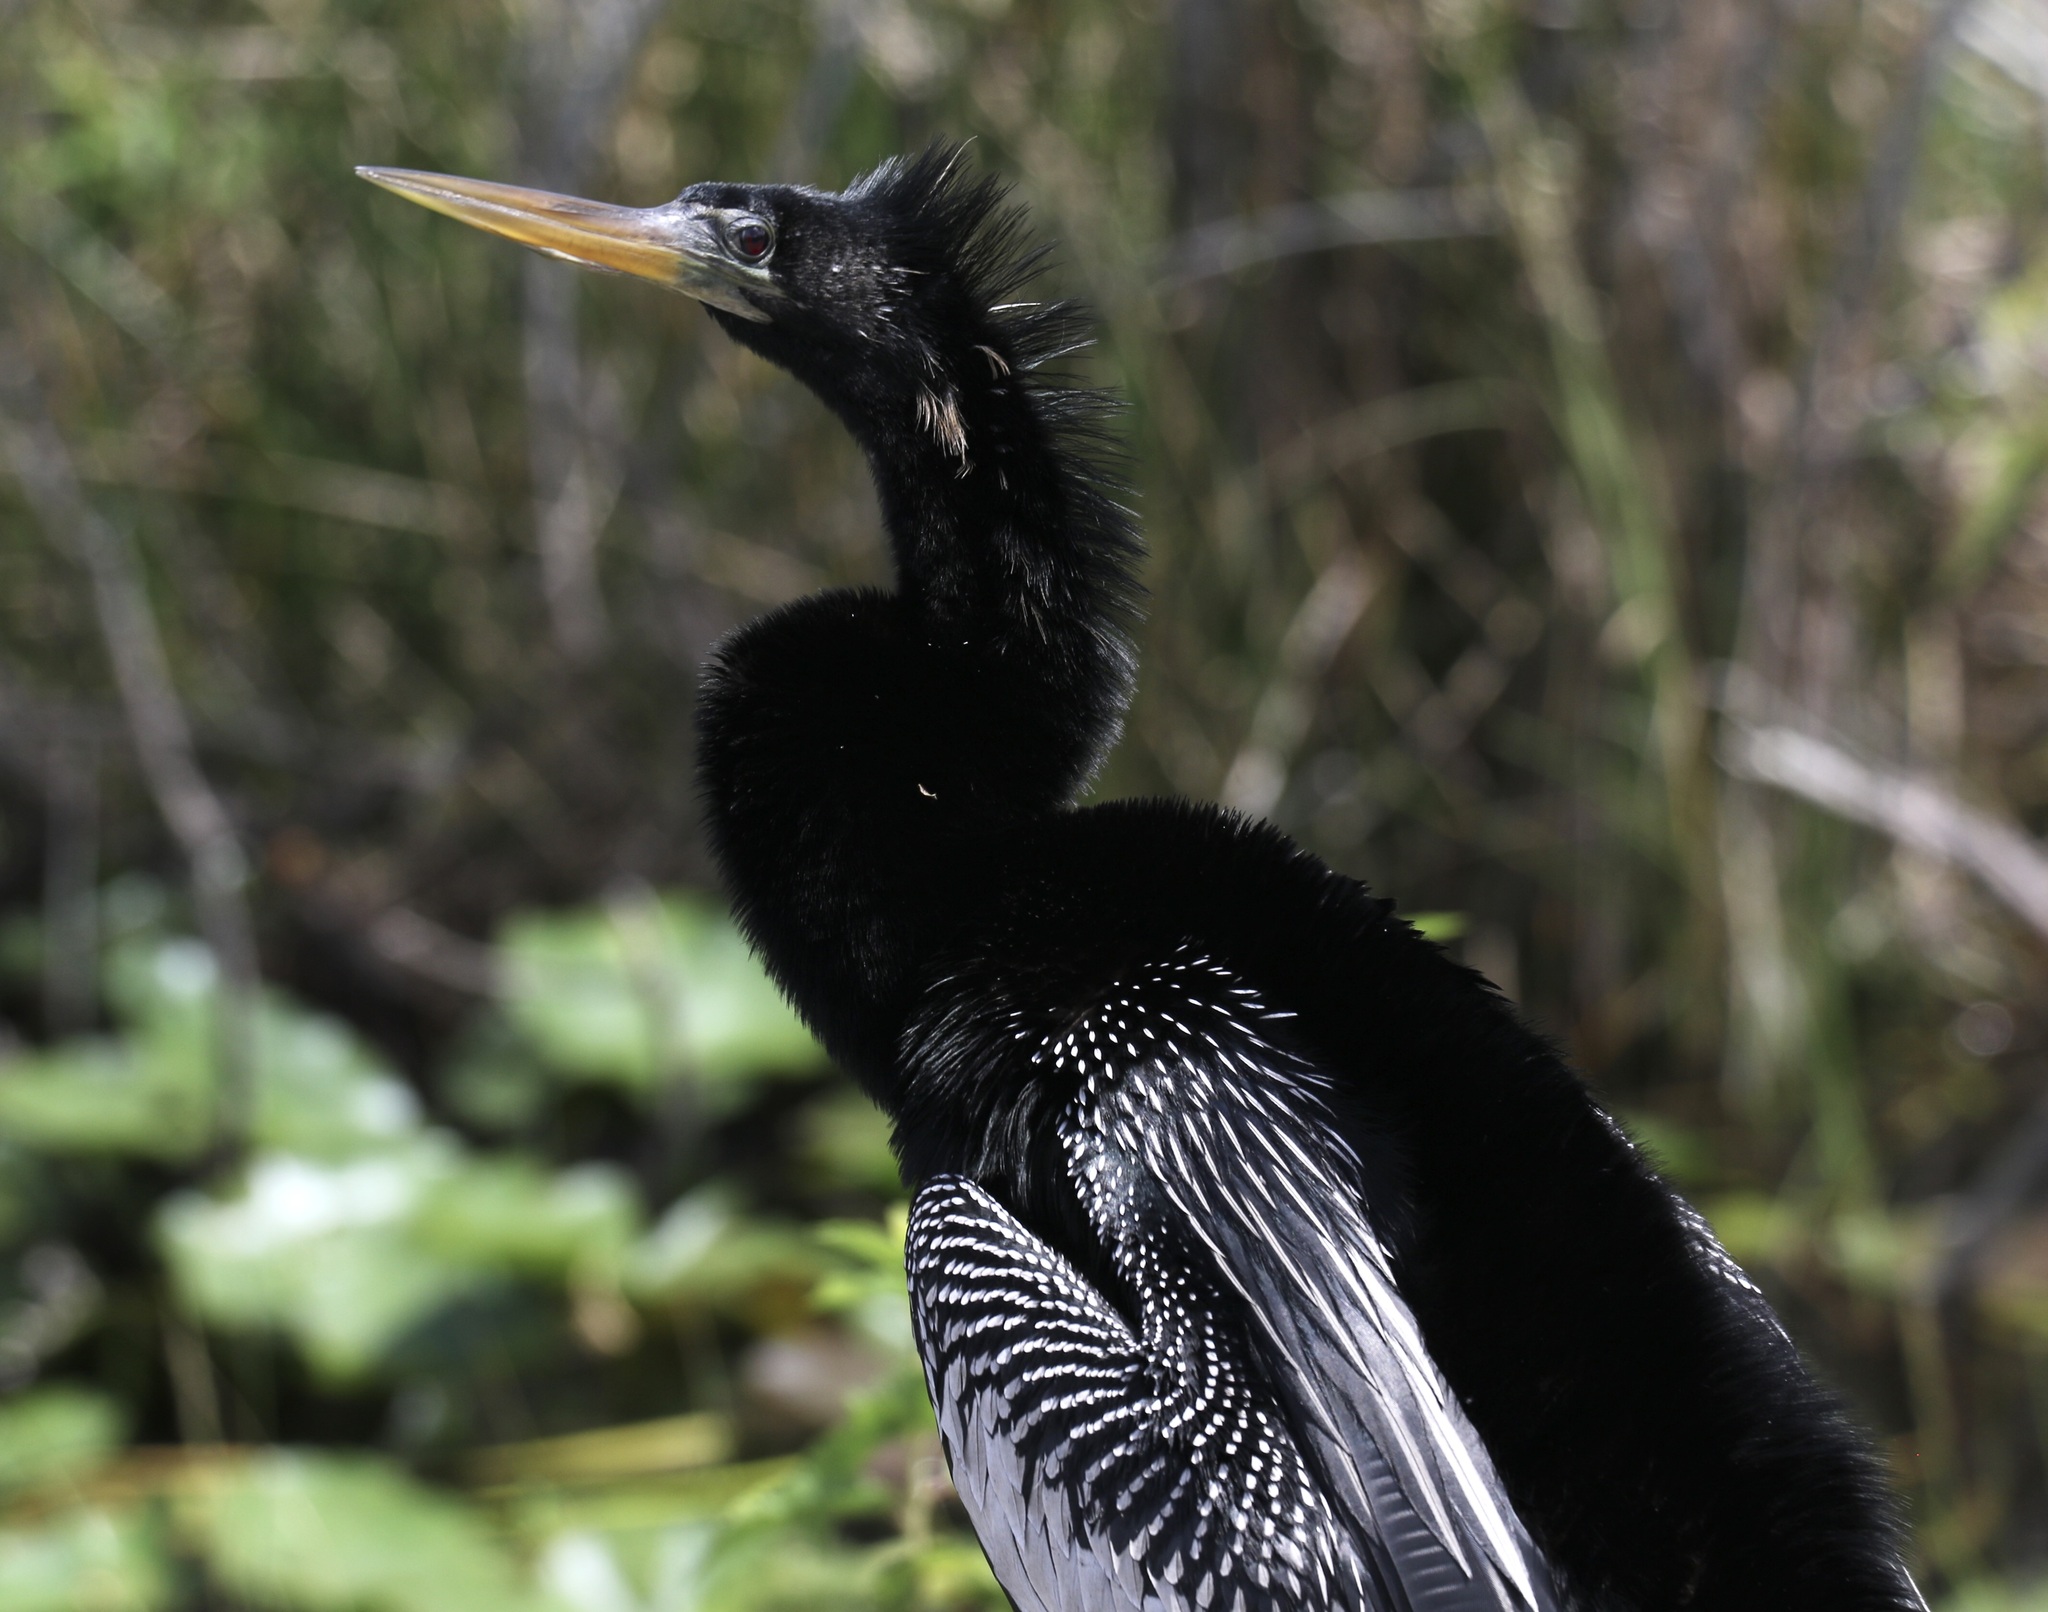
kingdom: Animalia
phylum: Chordata
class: Aves
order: Suliformes
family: Anhingidae
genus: Anhinga
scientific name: Anhinga anhinga
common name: Anhinga
